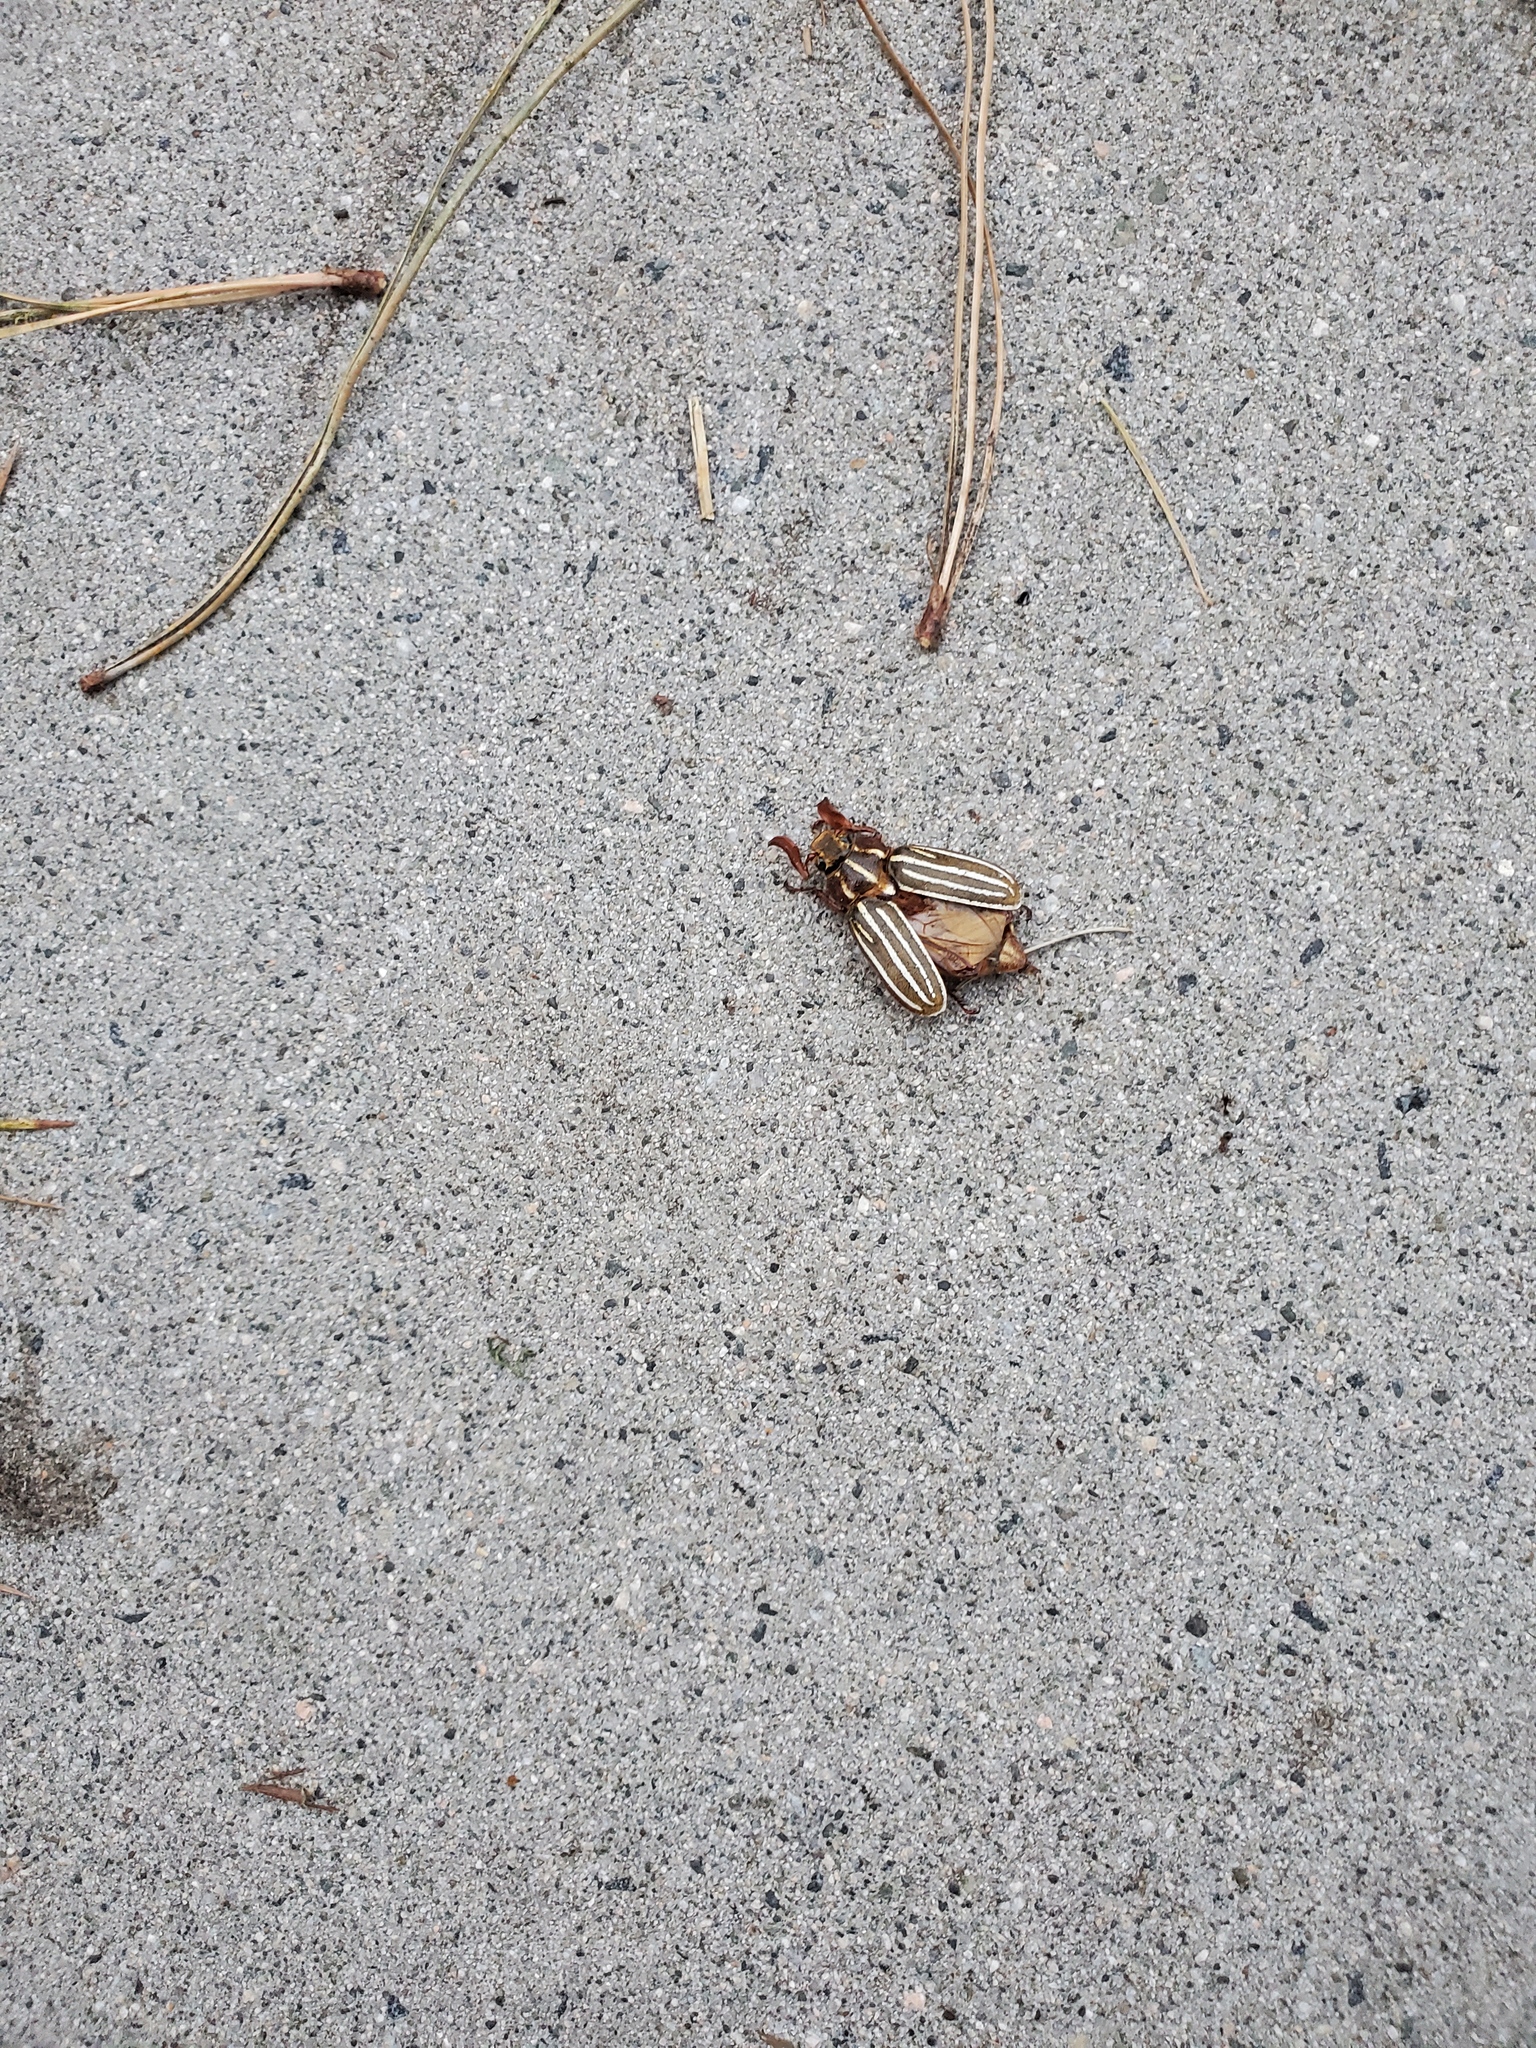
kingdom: Animalia
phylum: Arthropoda
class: Insecta
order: Coleoptera
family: Scarabaeidae
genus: Polyphylla
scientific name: Polyphylla crinita
